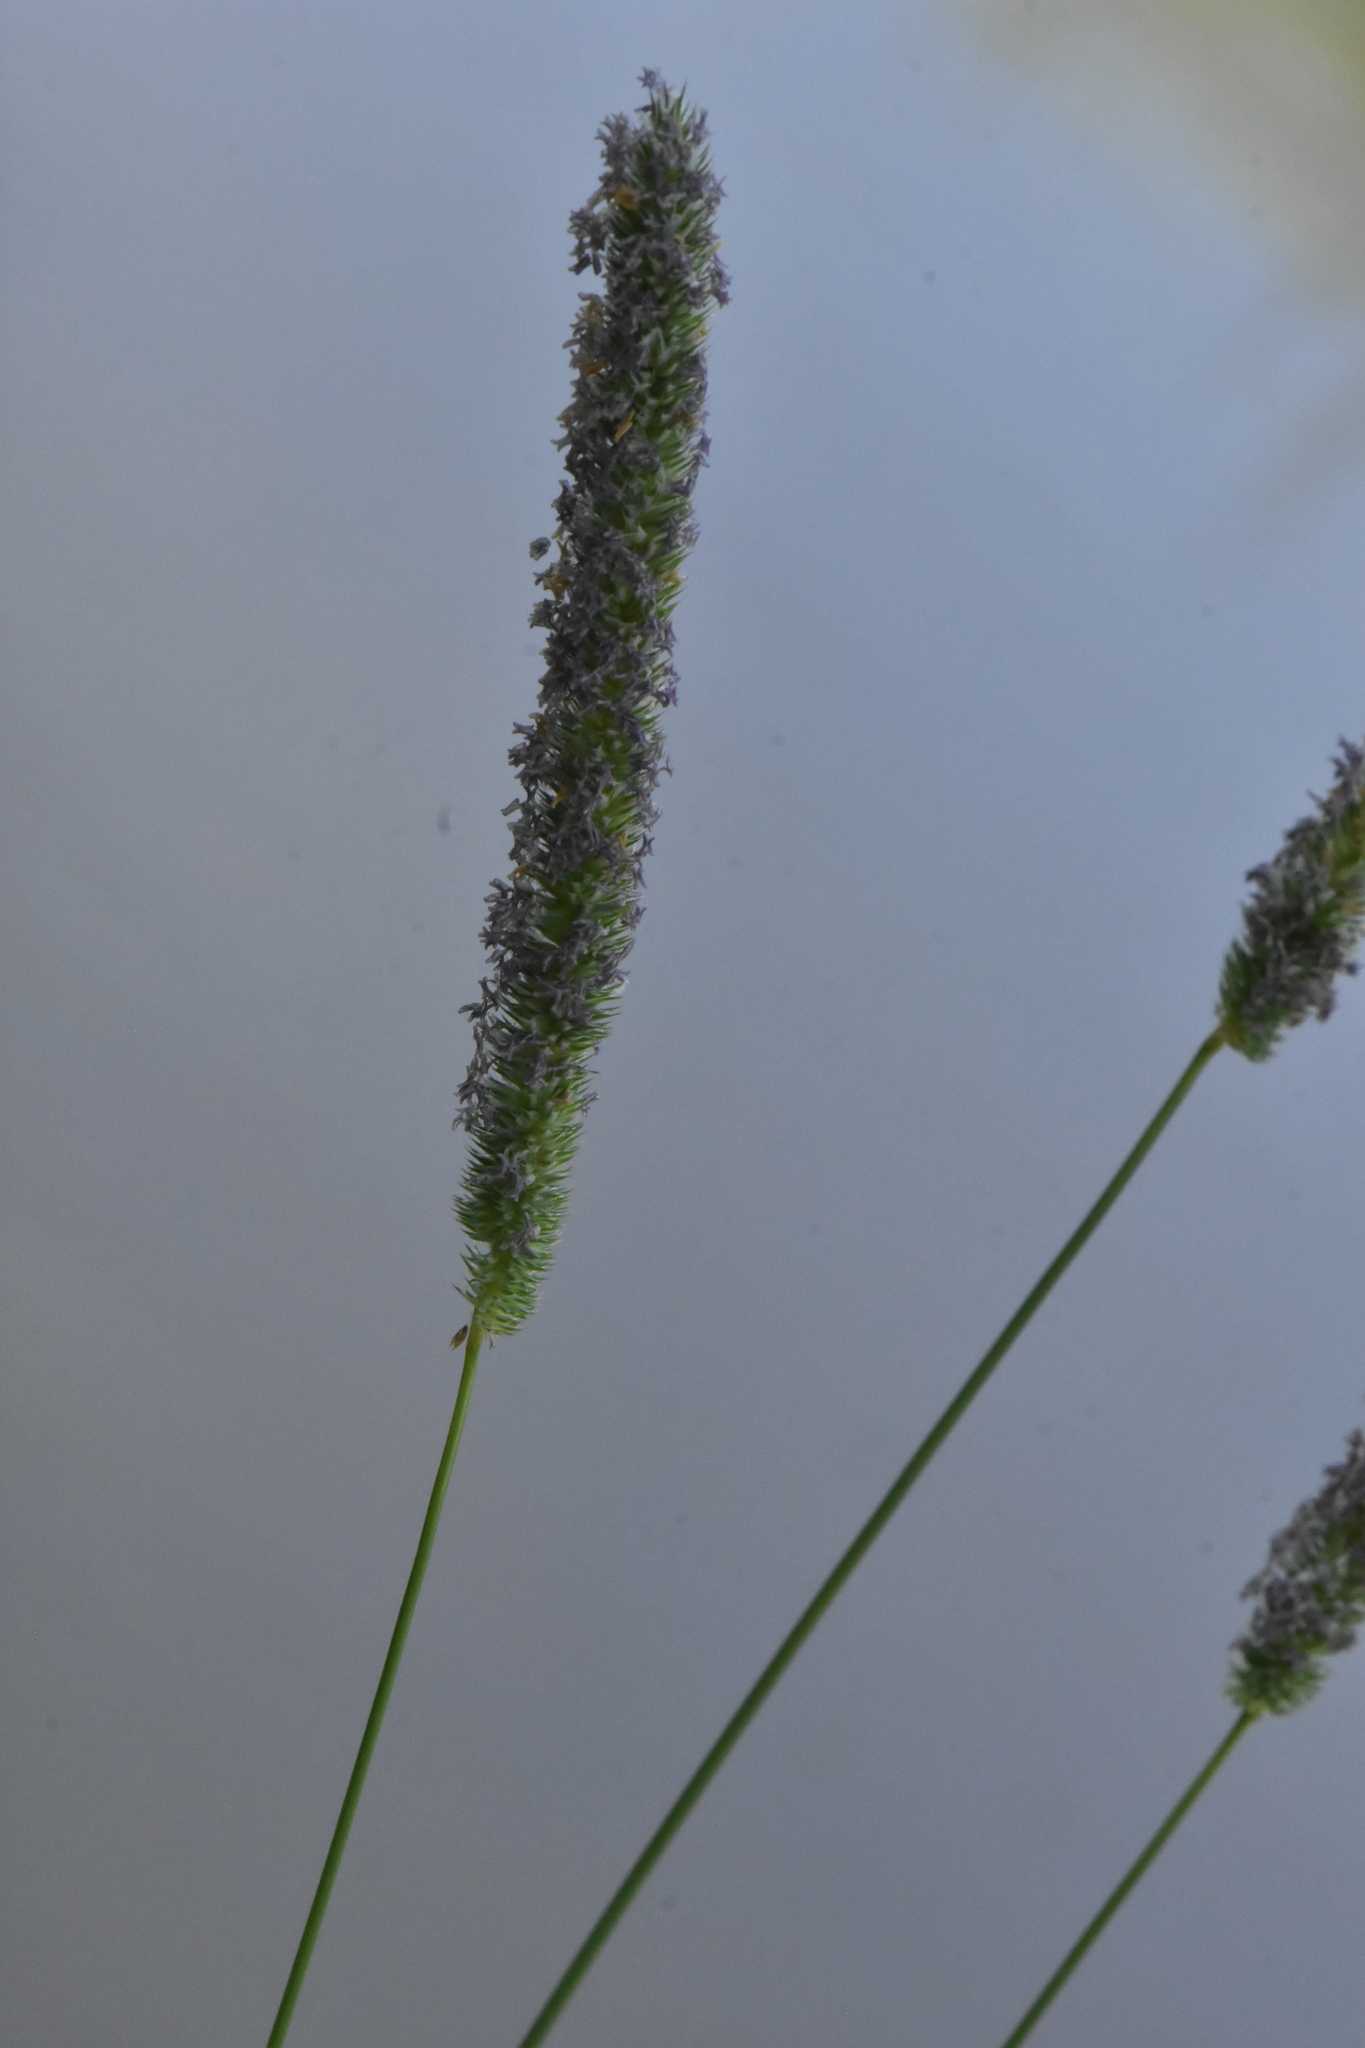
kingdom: Plantae
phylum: Tracheophyta
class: Liliopsida
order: Poales
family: Poaceae
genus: Phleum
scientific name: Phleum pratense
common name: Timothy grass
